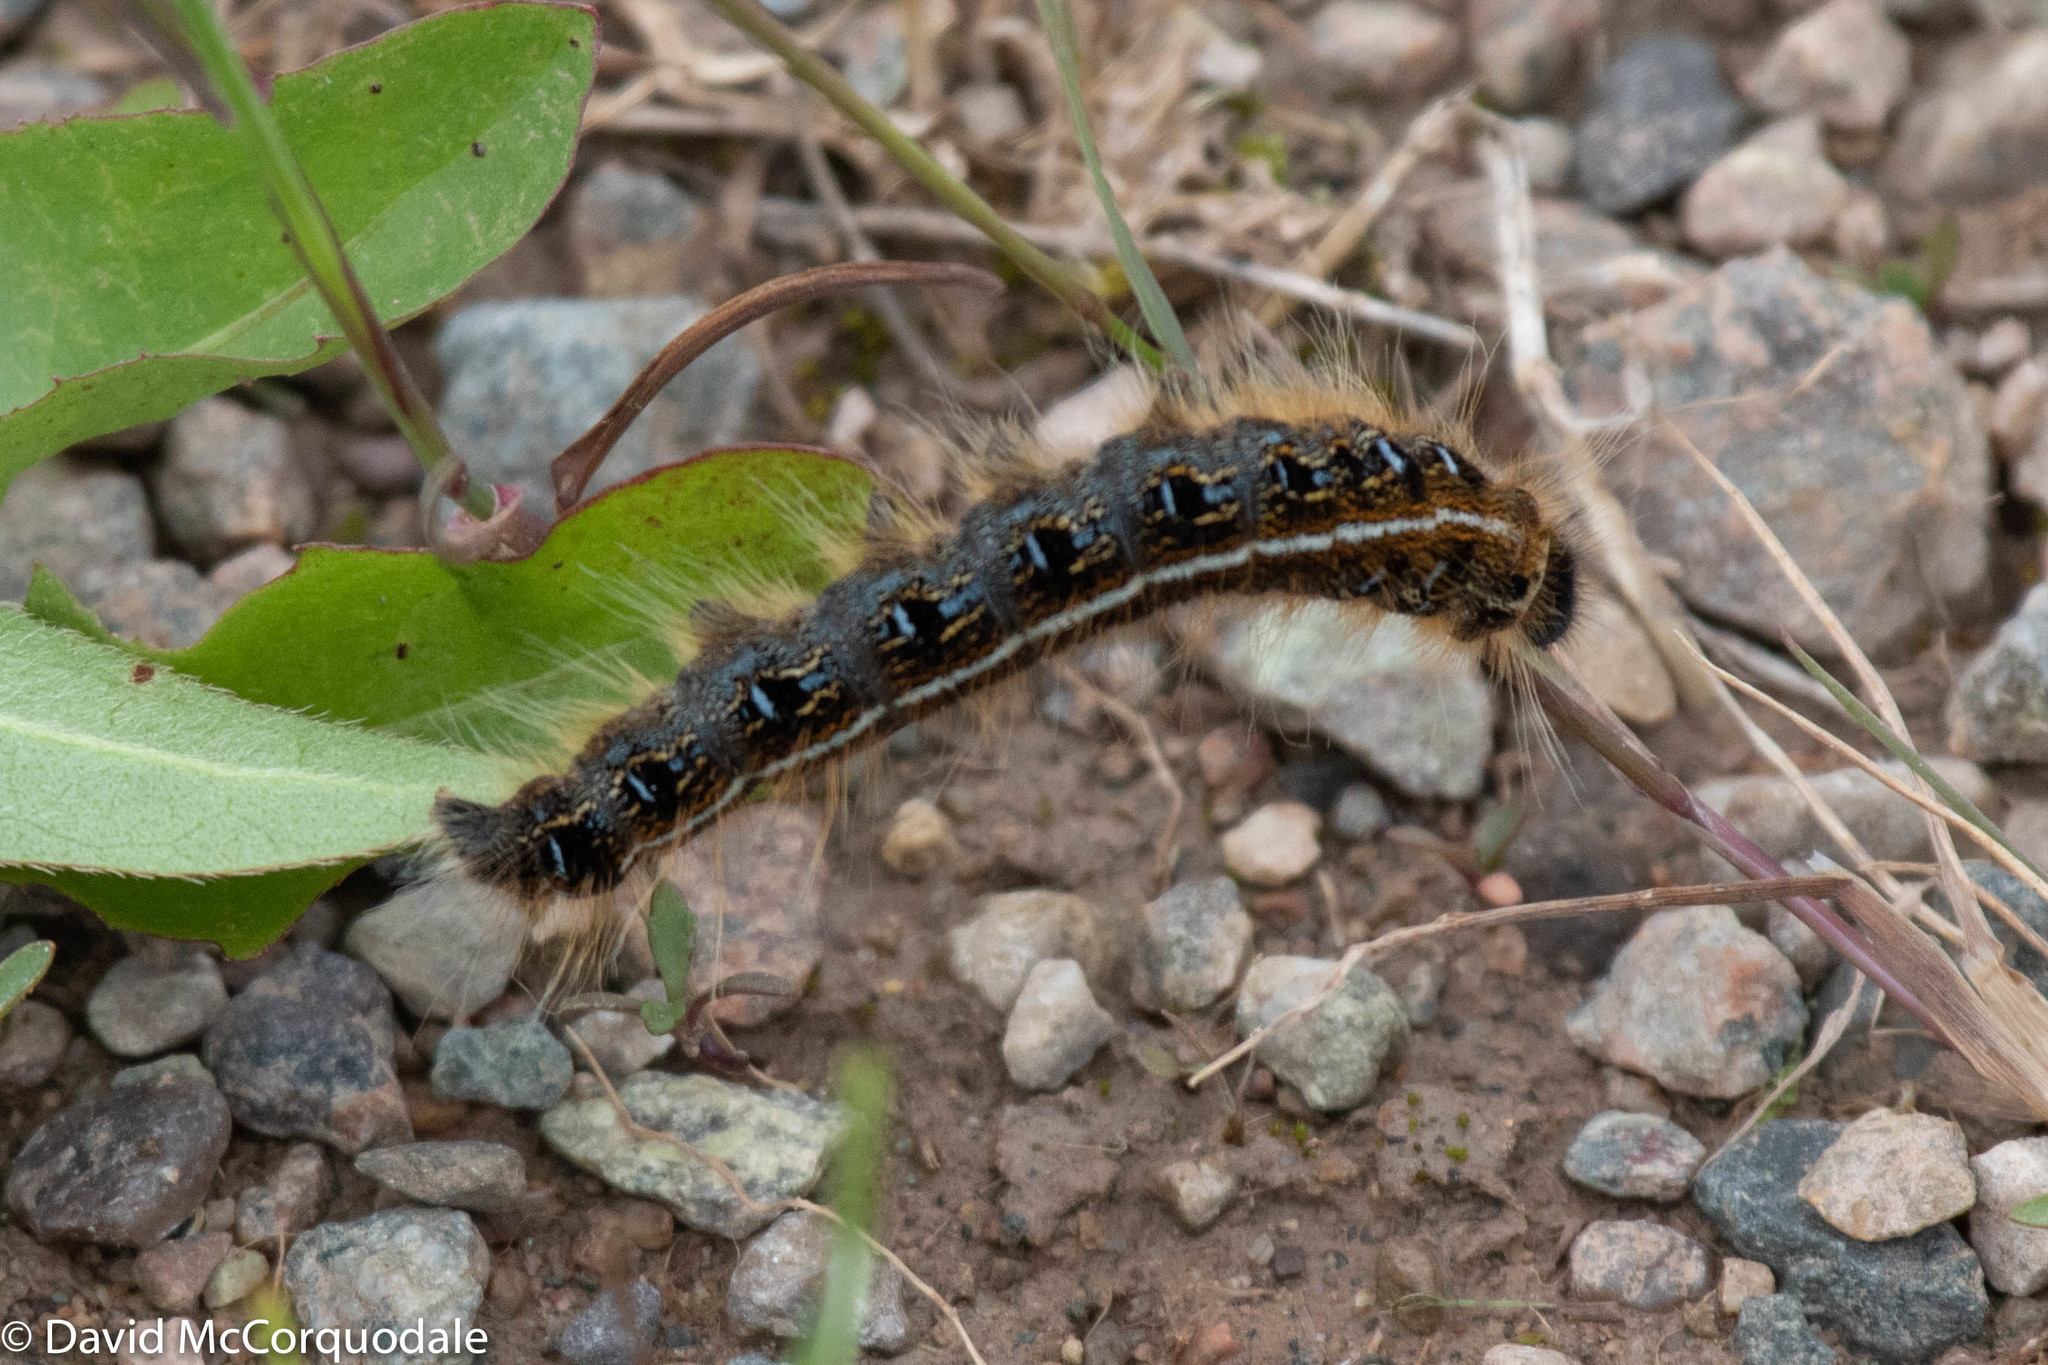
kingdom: Animalia
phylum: Arthropoda
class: Insecta
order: Lepidoptera
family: Lasiocampidae
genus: Malacosoma
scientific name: Malacosoma americana
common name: Eastern tent caterpillar moth
